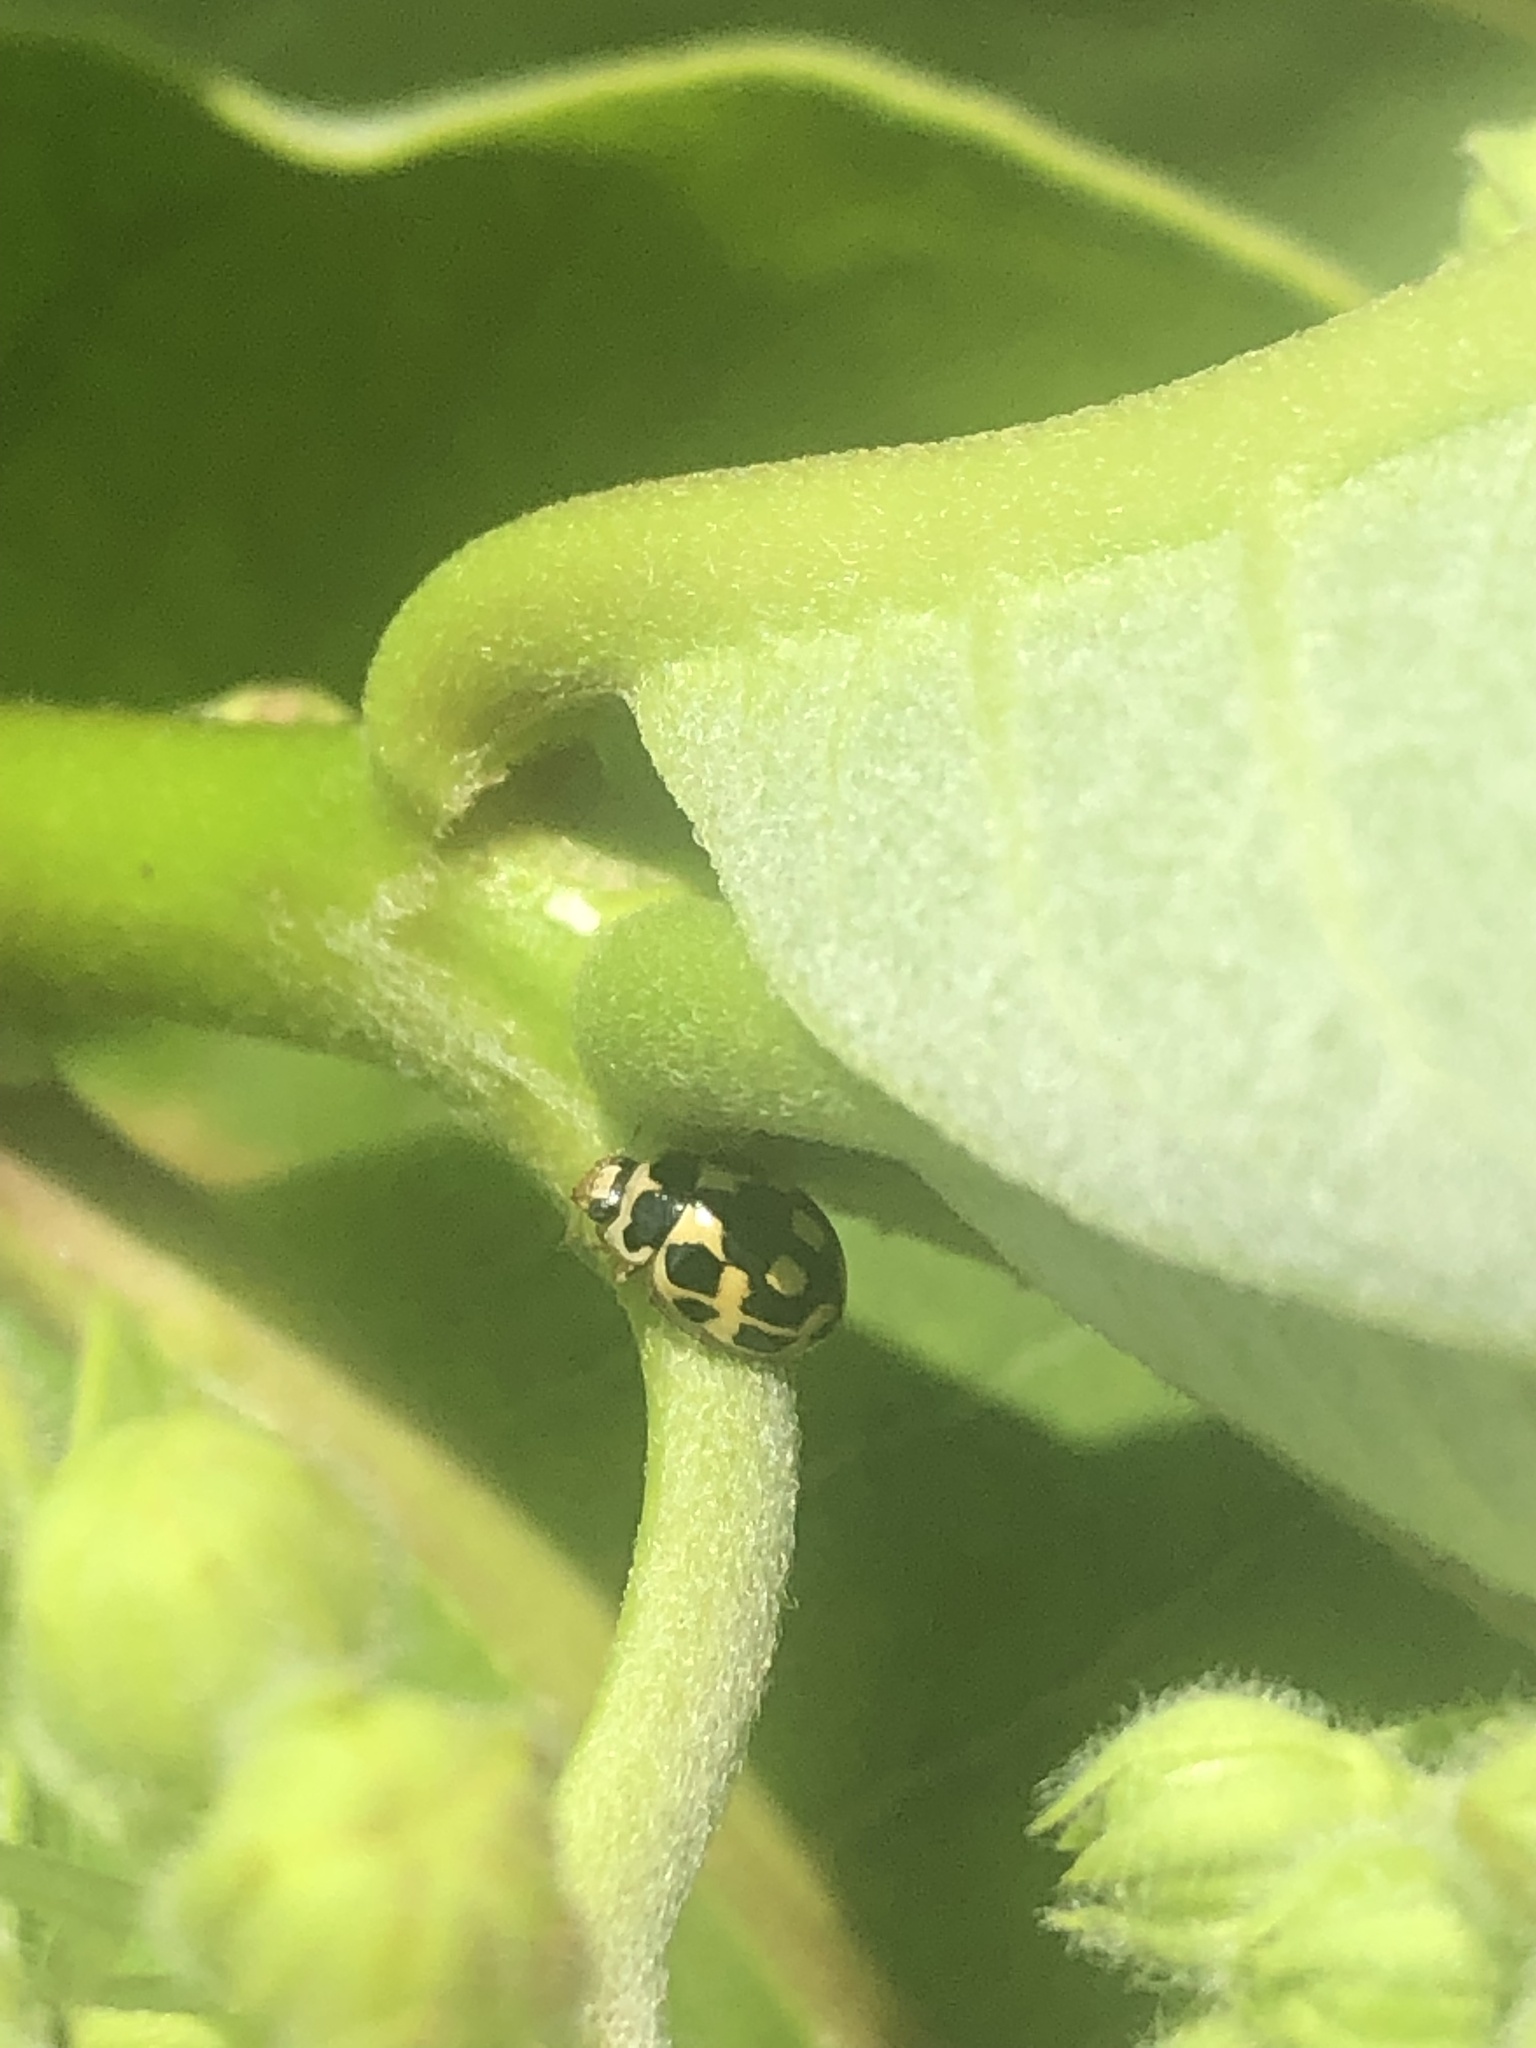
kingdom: Animalia
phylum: Arthropoda
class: Insecta
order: Coleoptera
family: Coccinellidae
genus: Propylaea
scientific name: Propylaea quatuordecimpunctata
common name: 14-spotted ladybird beetle
